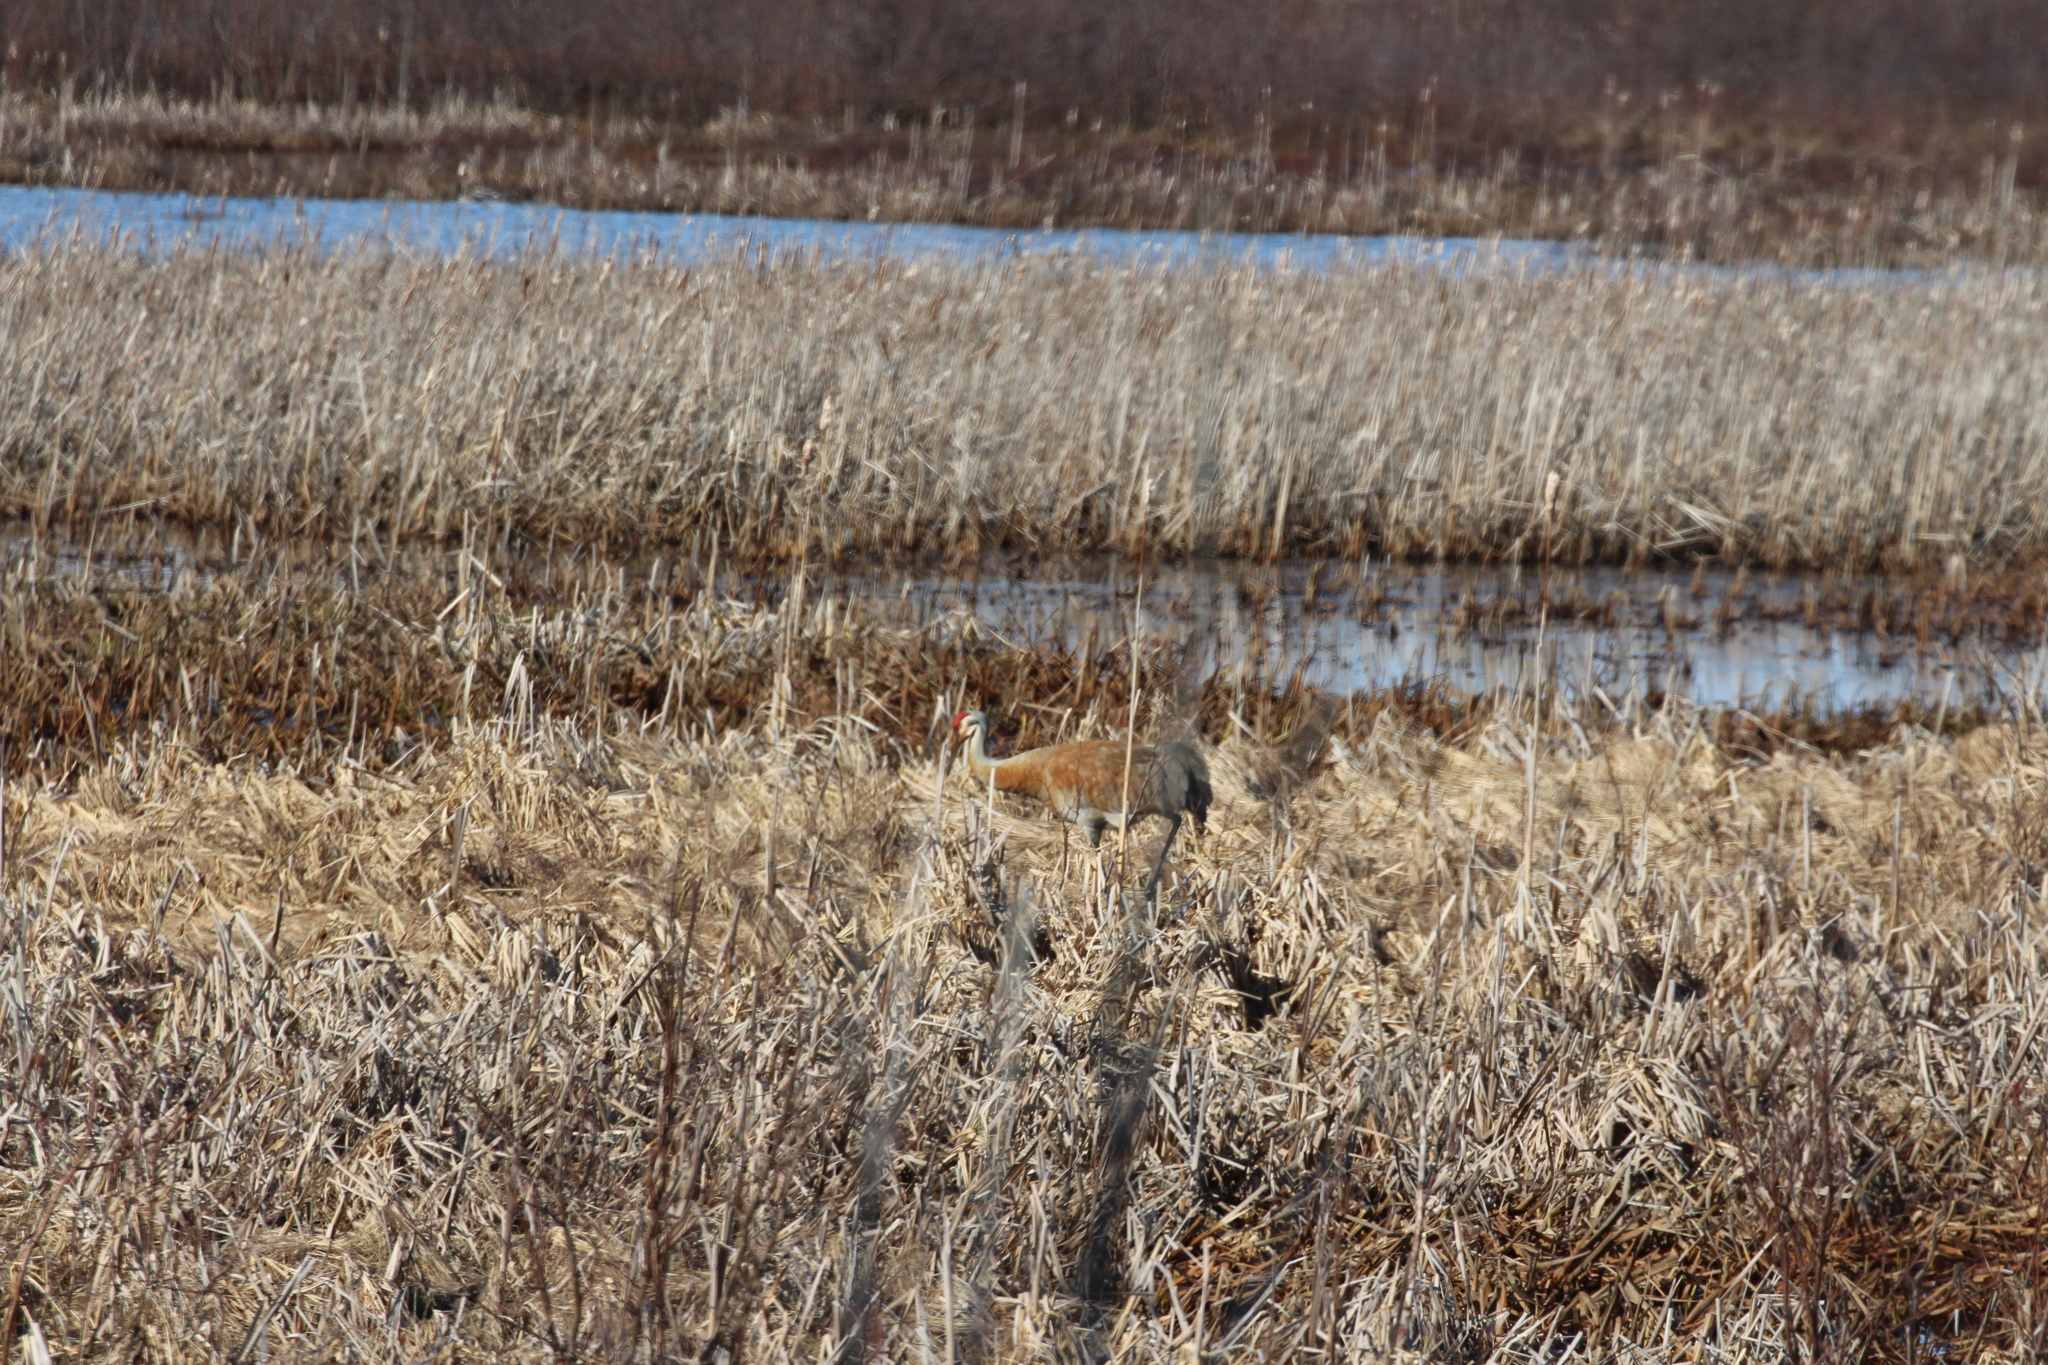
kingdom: Animalia
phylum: Chordata
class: Aves
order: Gruiformes
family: Gruidae
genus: Grus
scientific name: Grus canadensis
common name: Sandhill crane
